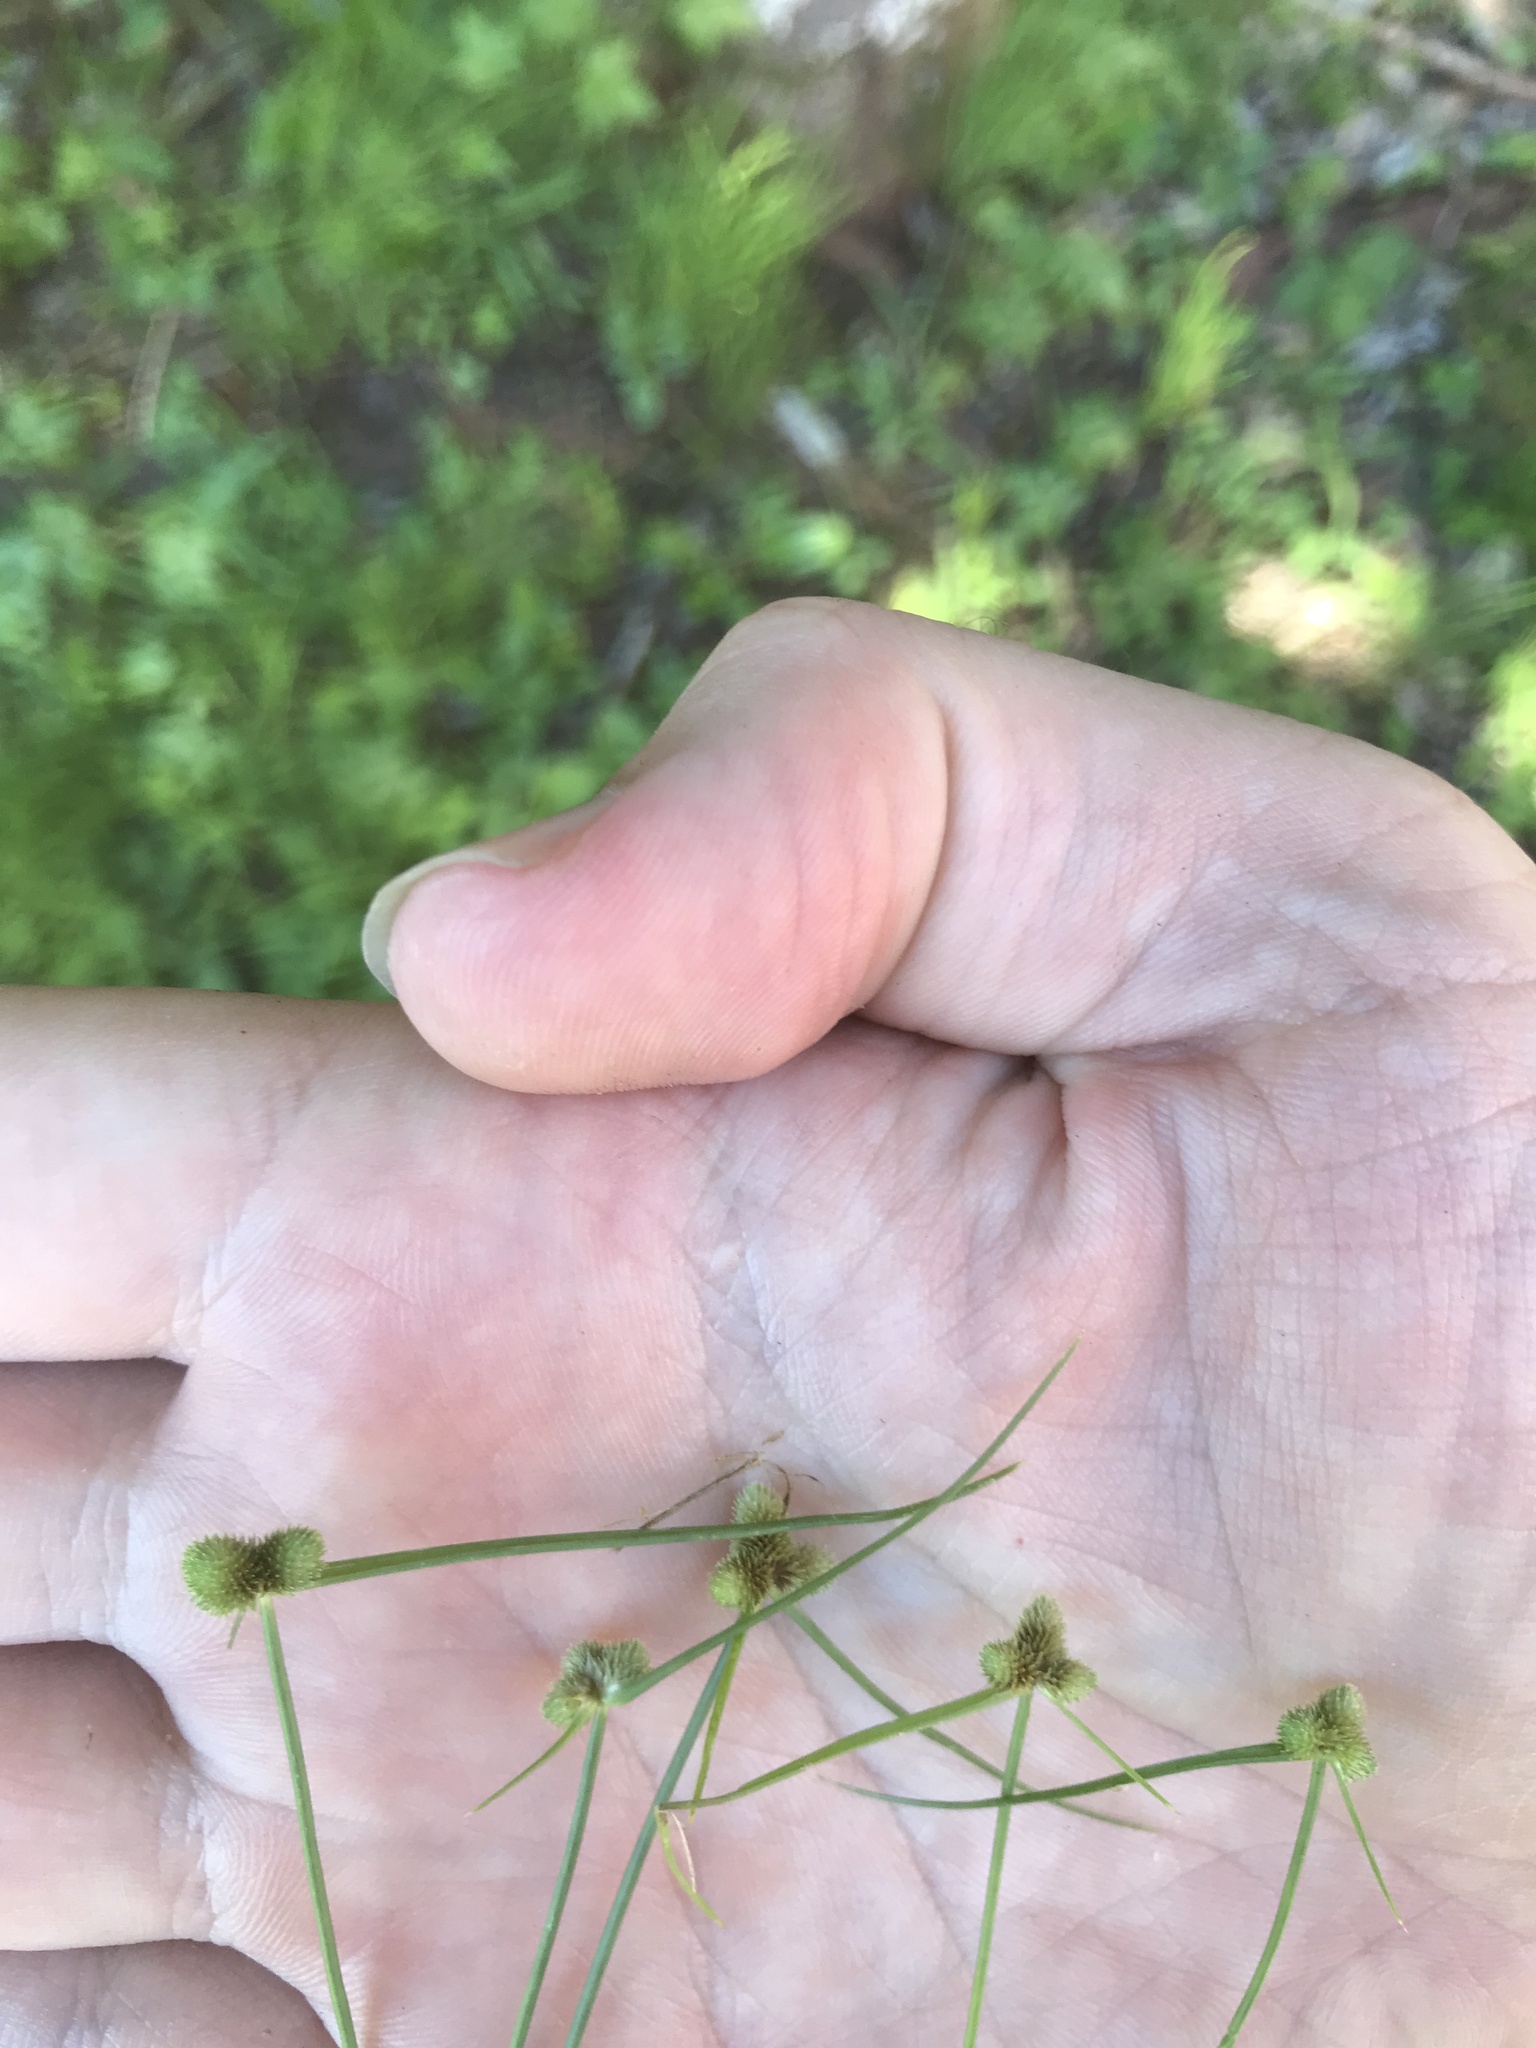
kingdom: Plantae
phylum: Tracheophyta
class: Liliopsida
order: Poales
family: Cyperaceae
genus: Cyperus
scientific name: Cyperus leptocarpus
